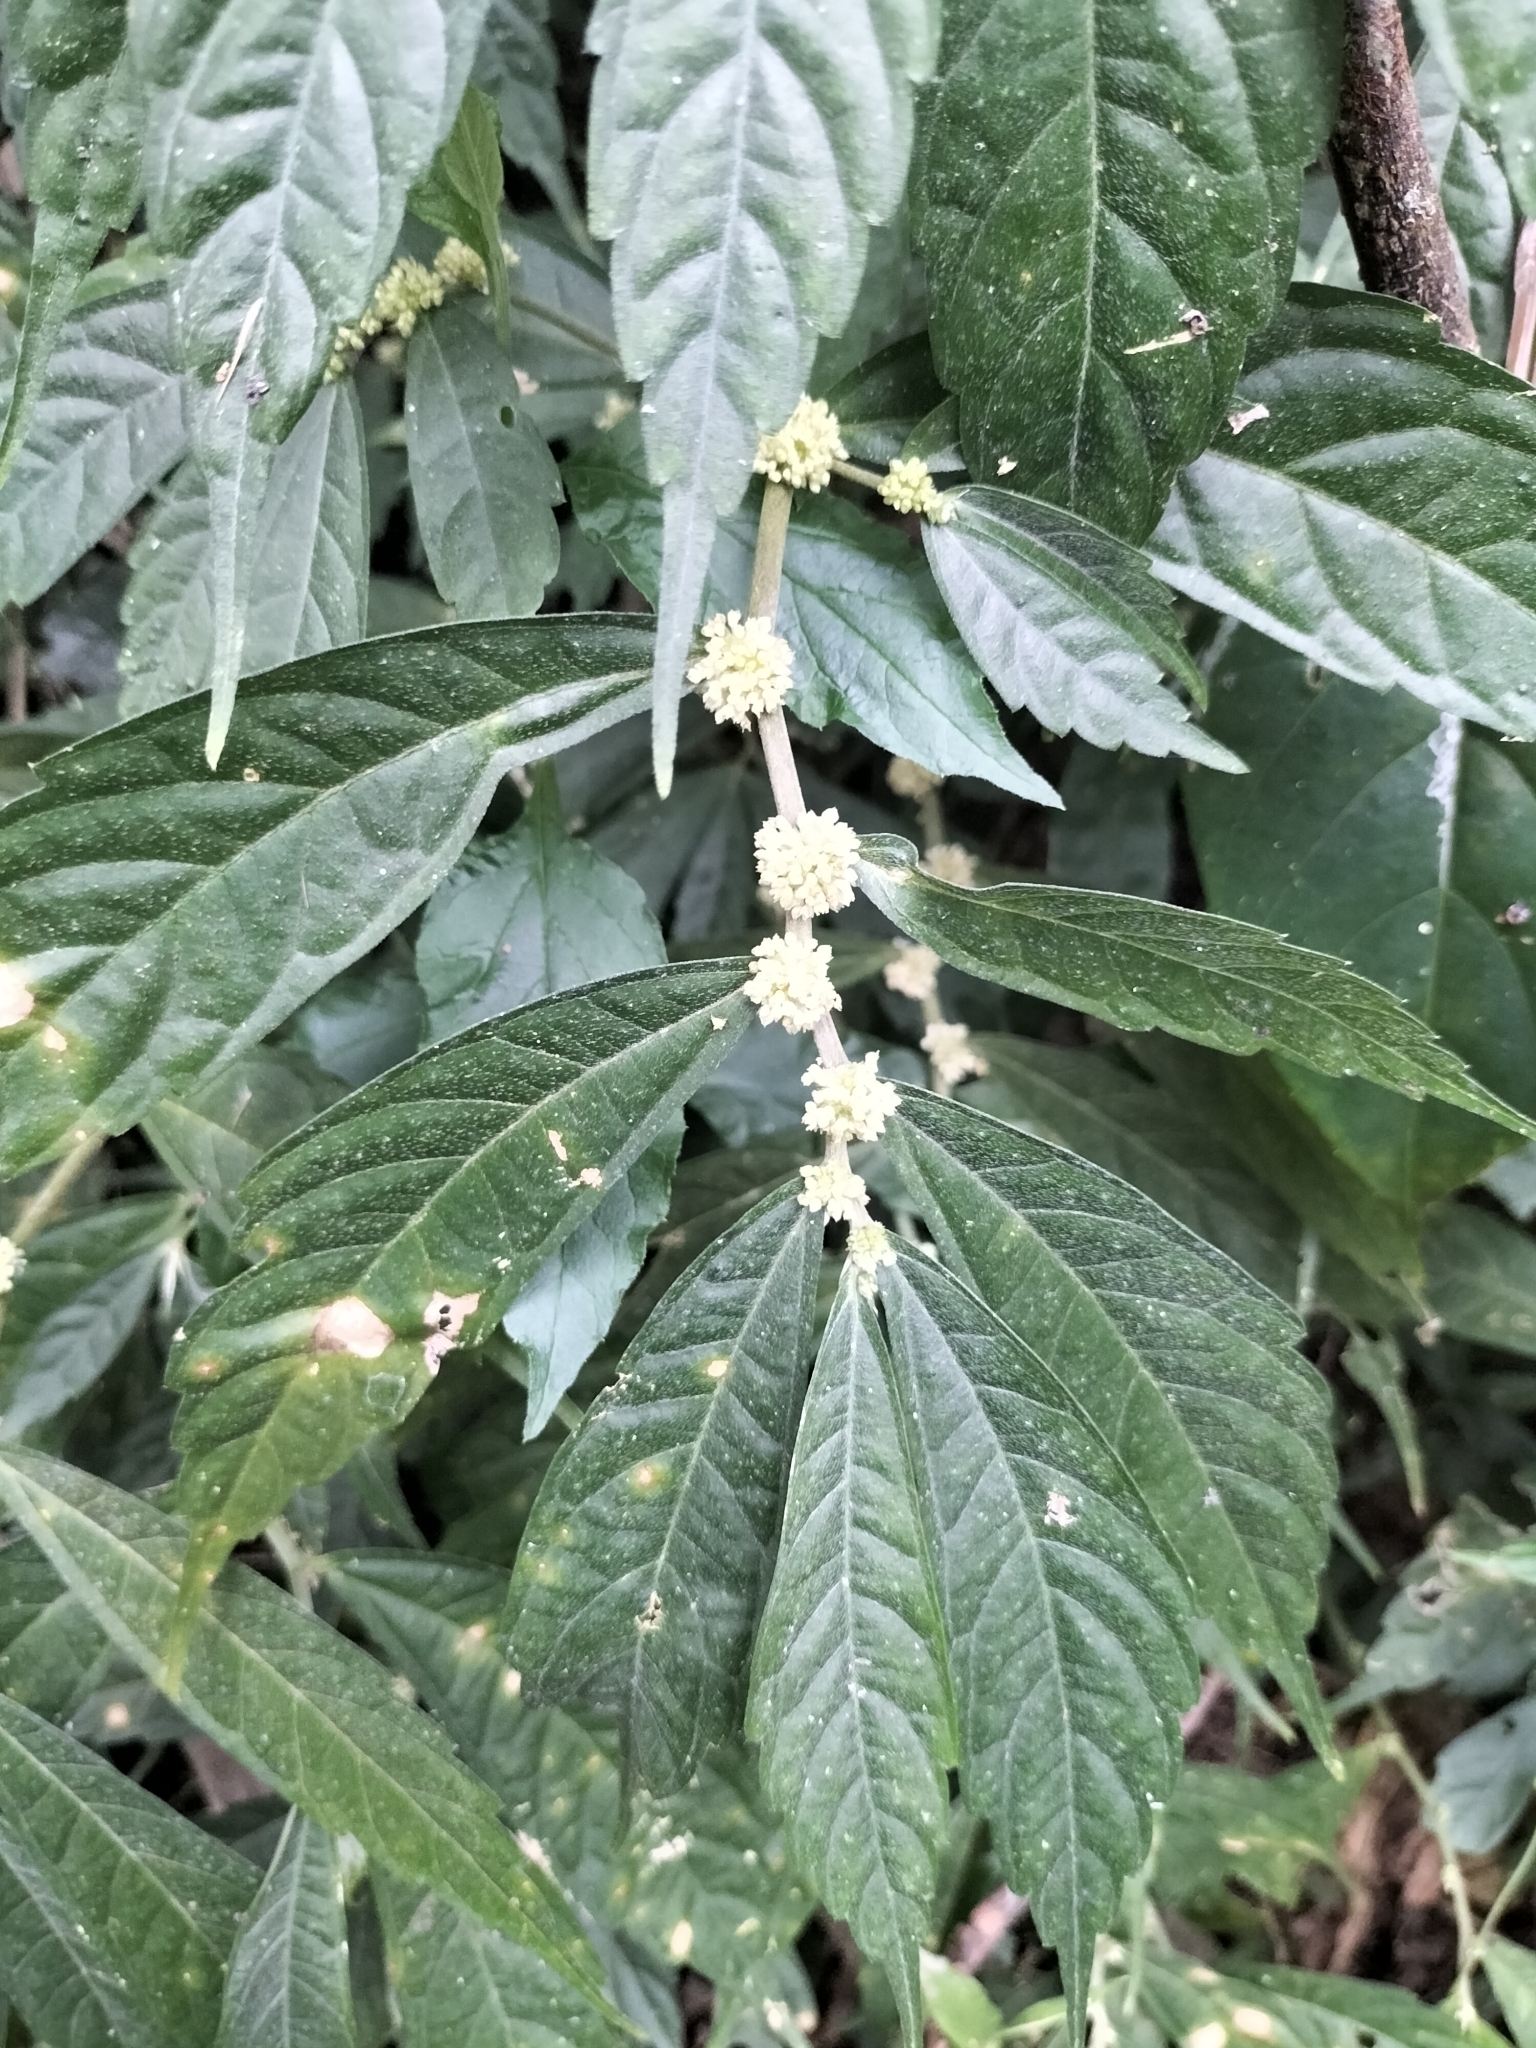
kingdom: Plantae
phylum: Tracheophyta
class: Magnoliopsida
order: Rosales
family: Urticaceae
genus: Elatostema
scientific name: Elatostema lineolatum
